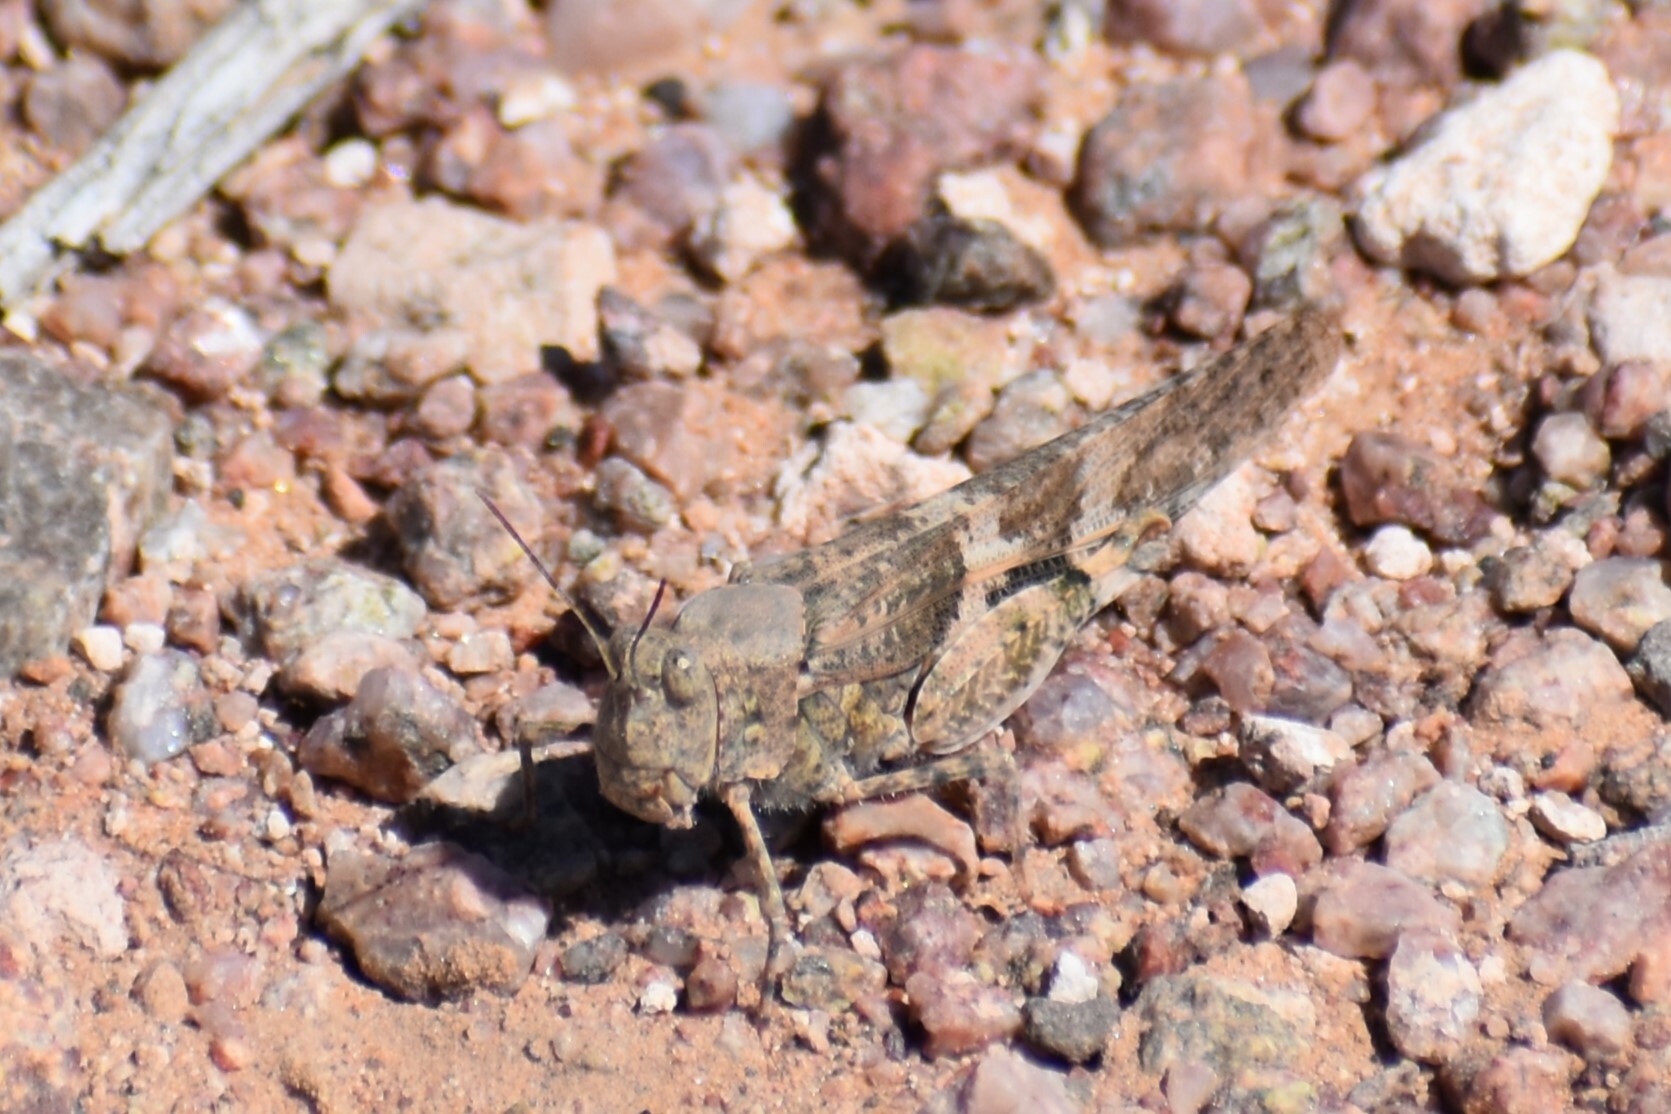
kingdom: Animalia
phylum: Arthropoda
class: Insecta
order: Orthoptera
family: Acrididae
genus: Trimerotropis
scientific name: Trimerotropis pallidipennis
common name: Pallid-winged grasshopper
